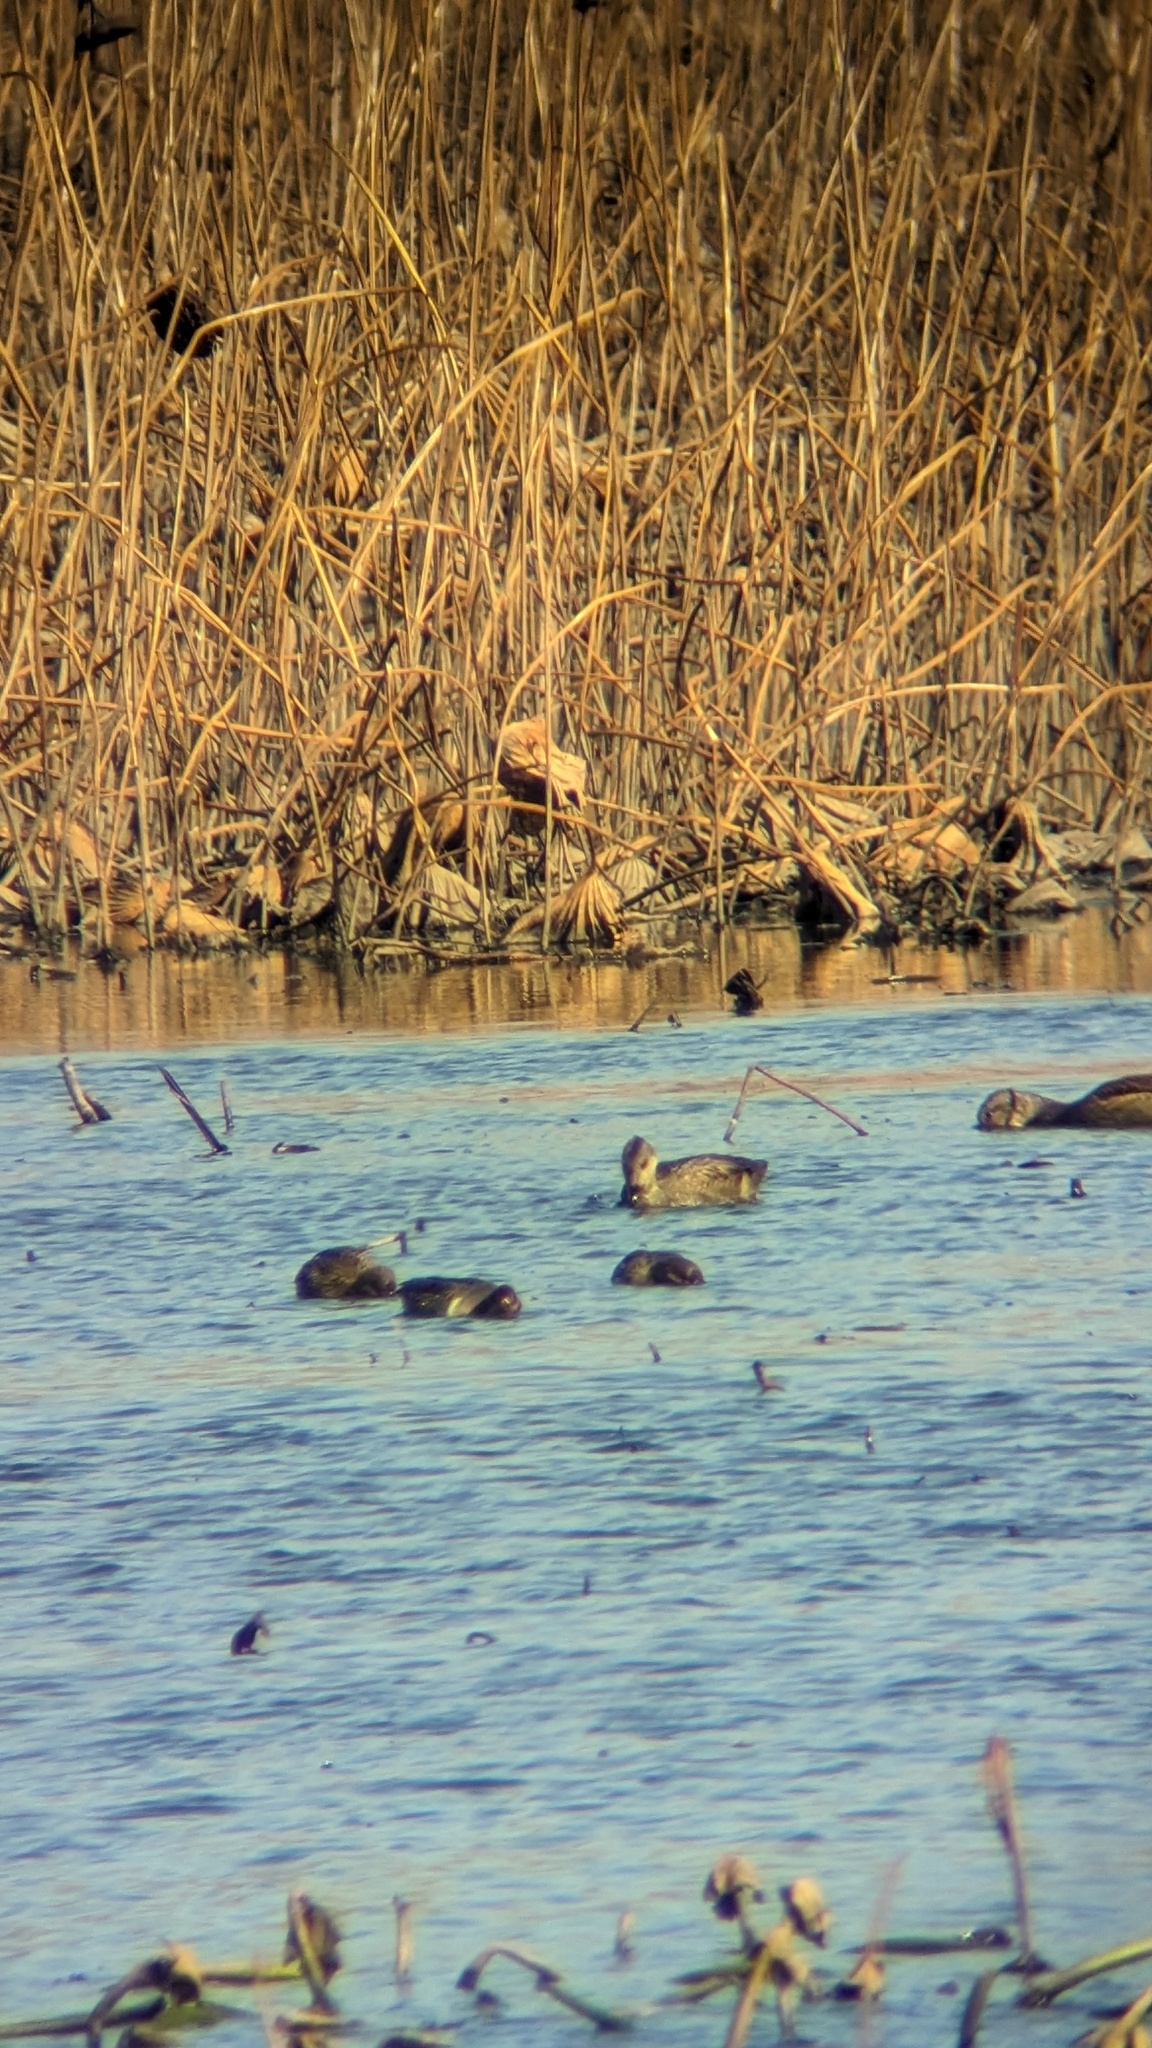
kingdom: Animalia
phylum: Chordata
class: Aves
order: Anseriformes
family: Anatidae
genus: Anas
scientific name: Anas crecca
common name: Eurasian teal
